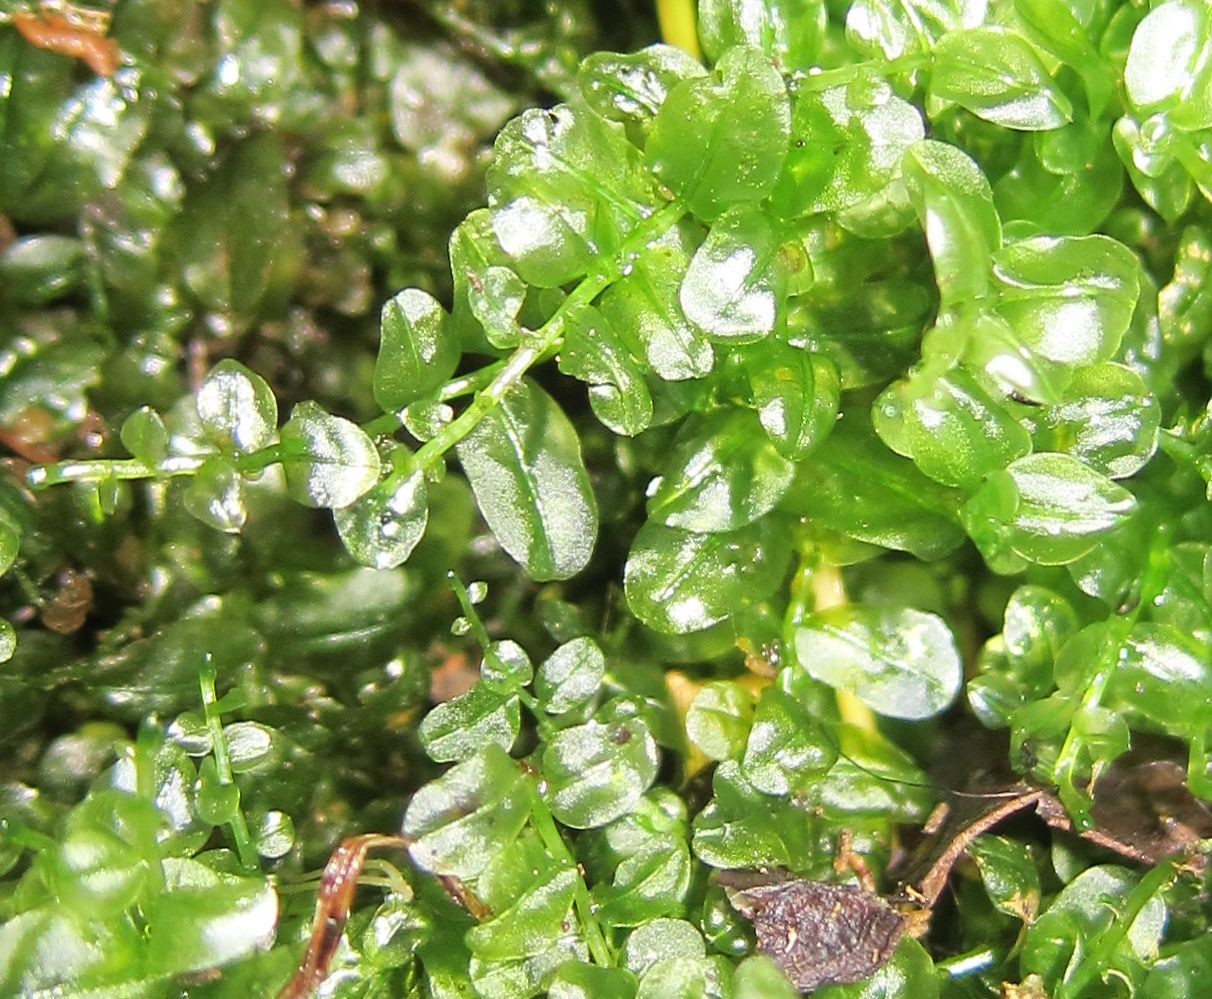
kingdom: Plantae
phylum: Bryophyta
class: Bryopsida
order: Bryales
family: Mniaceae
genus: Plagiomnium
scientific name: Plagiomnium novae-zealandiae
